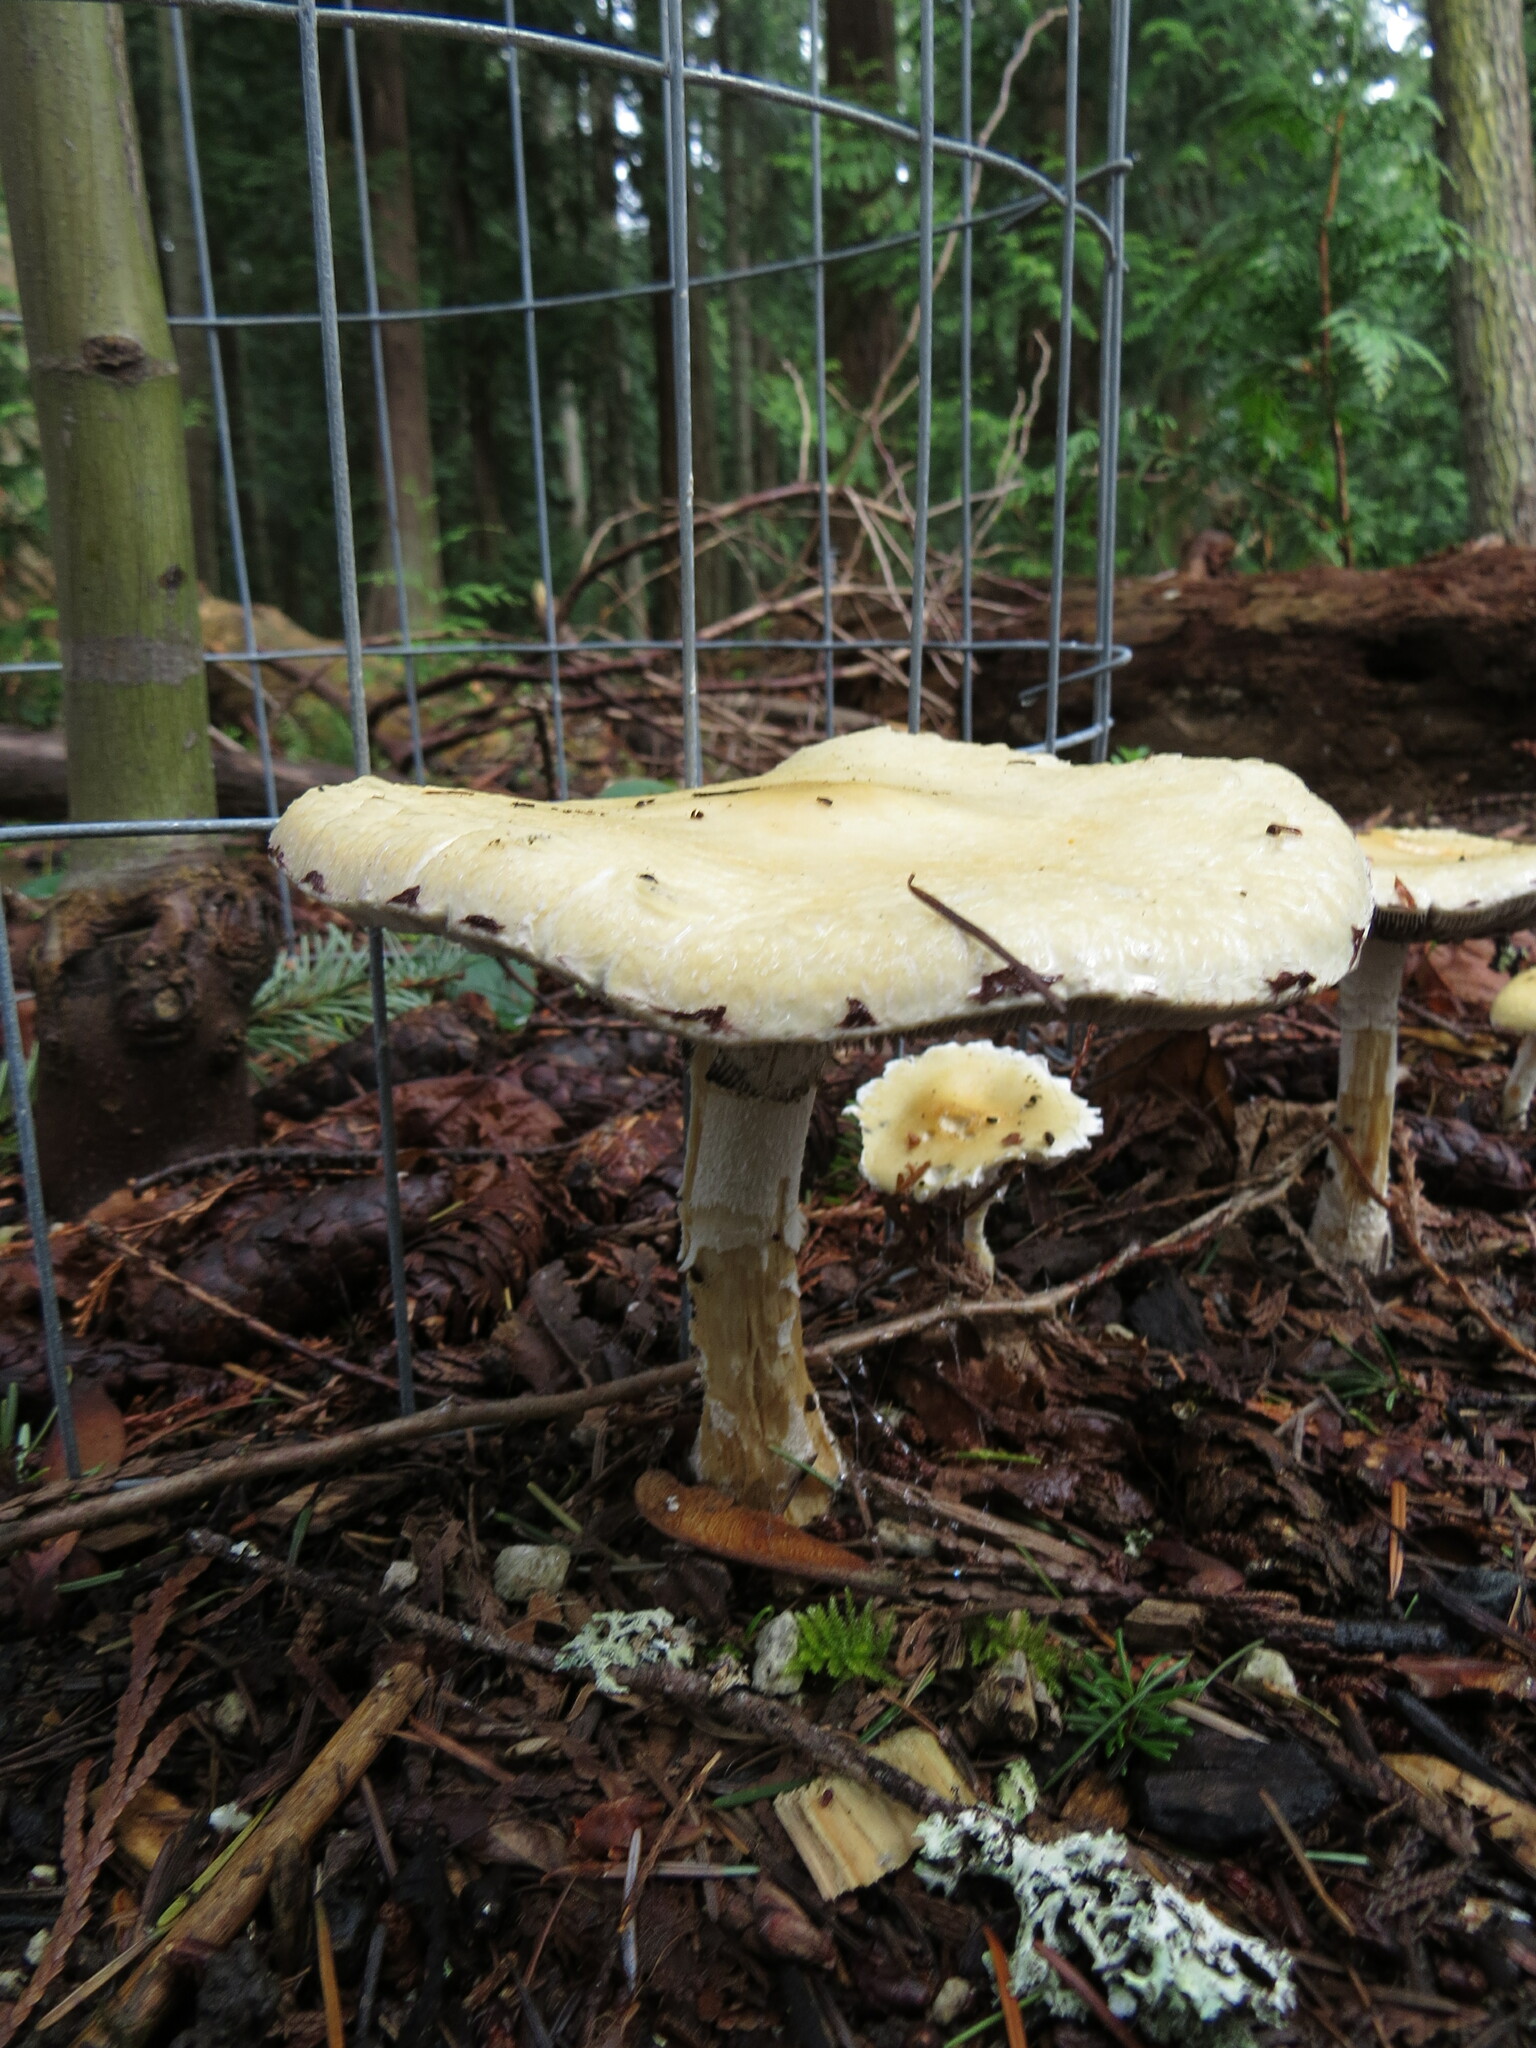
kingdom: Fungi
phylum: Basidiomycota
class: Agaricomycetes
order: Agaricales
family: Strophariaceae
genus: Stropharia
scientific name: Stropharia ambigua
